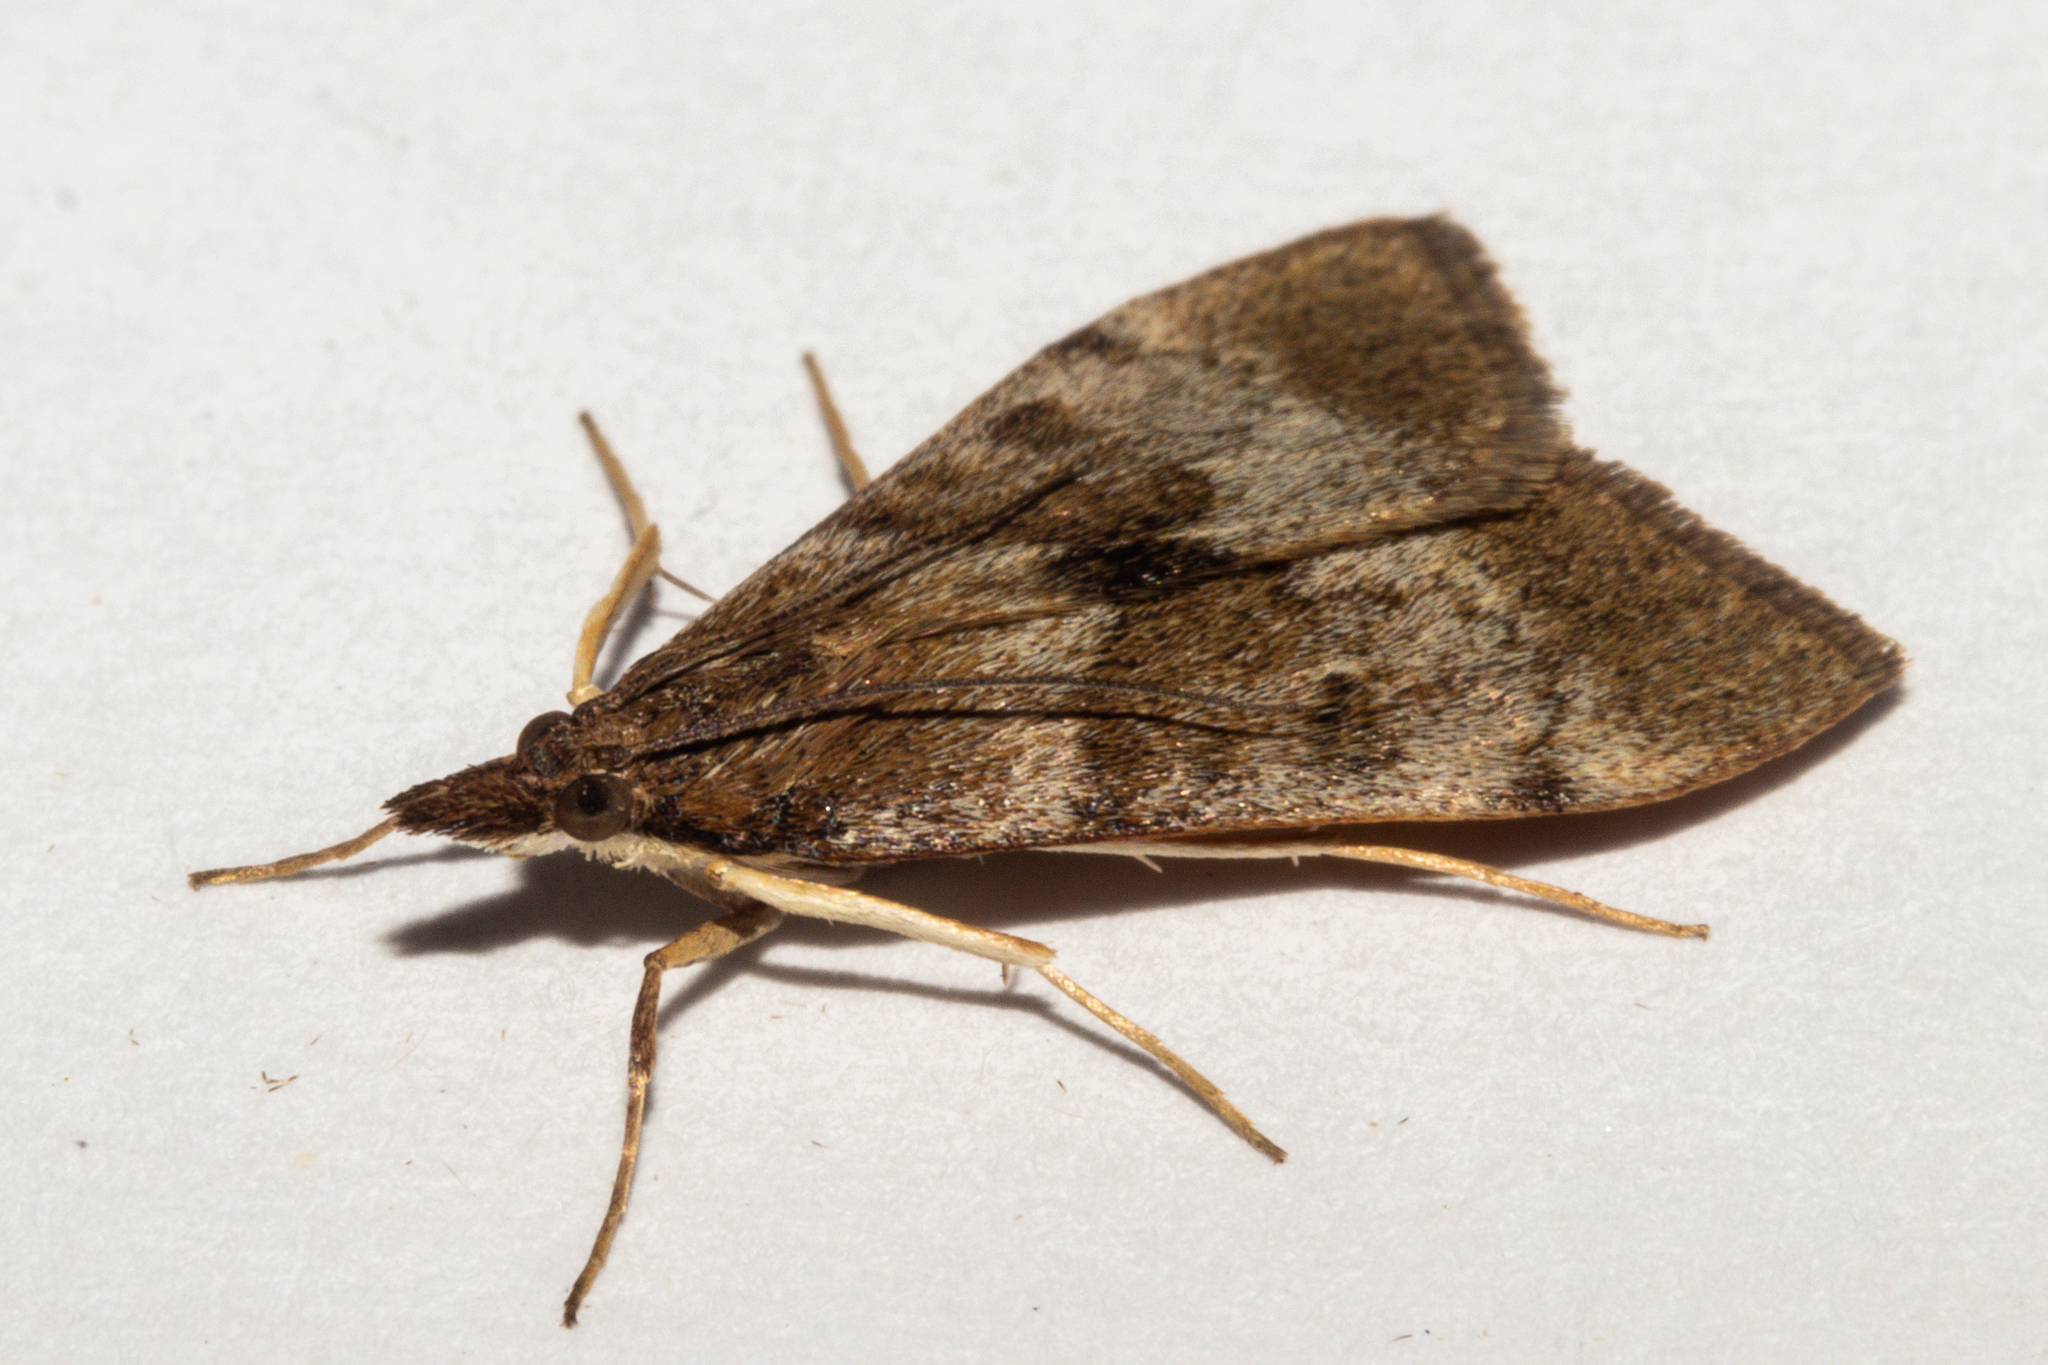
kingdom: Animalia
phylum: Arthropoda
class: Insecta
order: Lepidoptera
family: Crambidae
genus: Uresiphita
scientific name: Uresiphita
